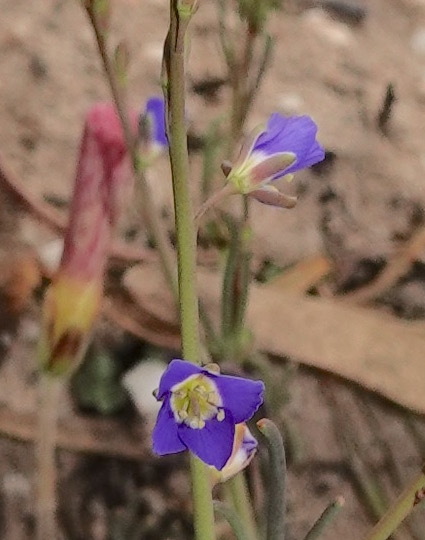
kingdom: Plantae
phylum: Tracheophyta
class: Magnoliopsida
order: Brassicales
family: Brassicaceae
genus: Heliophila
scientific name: Heliophila bulbostyla
